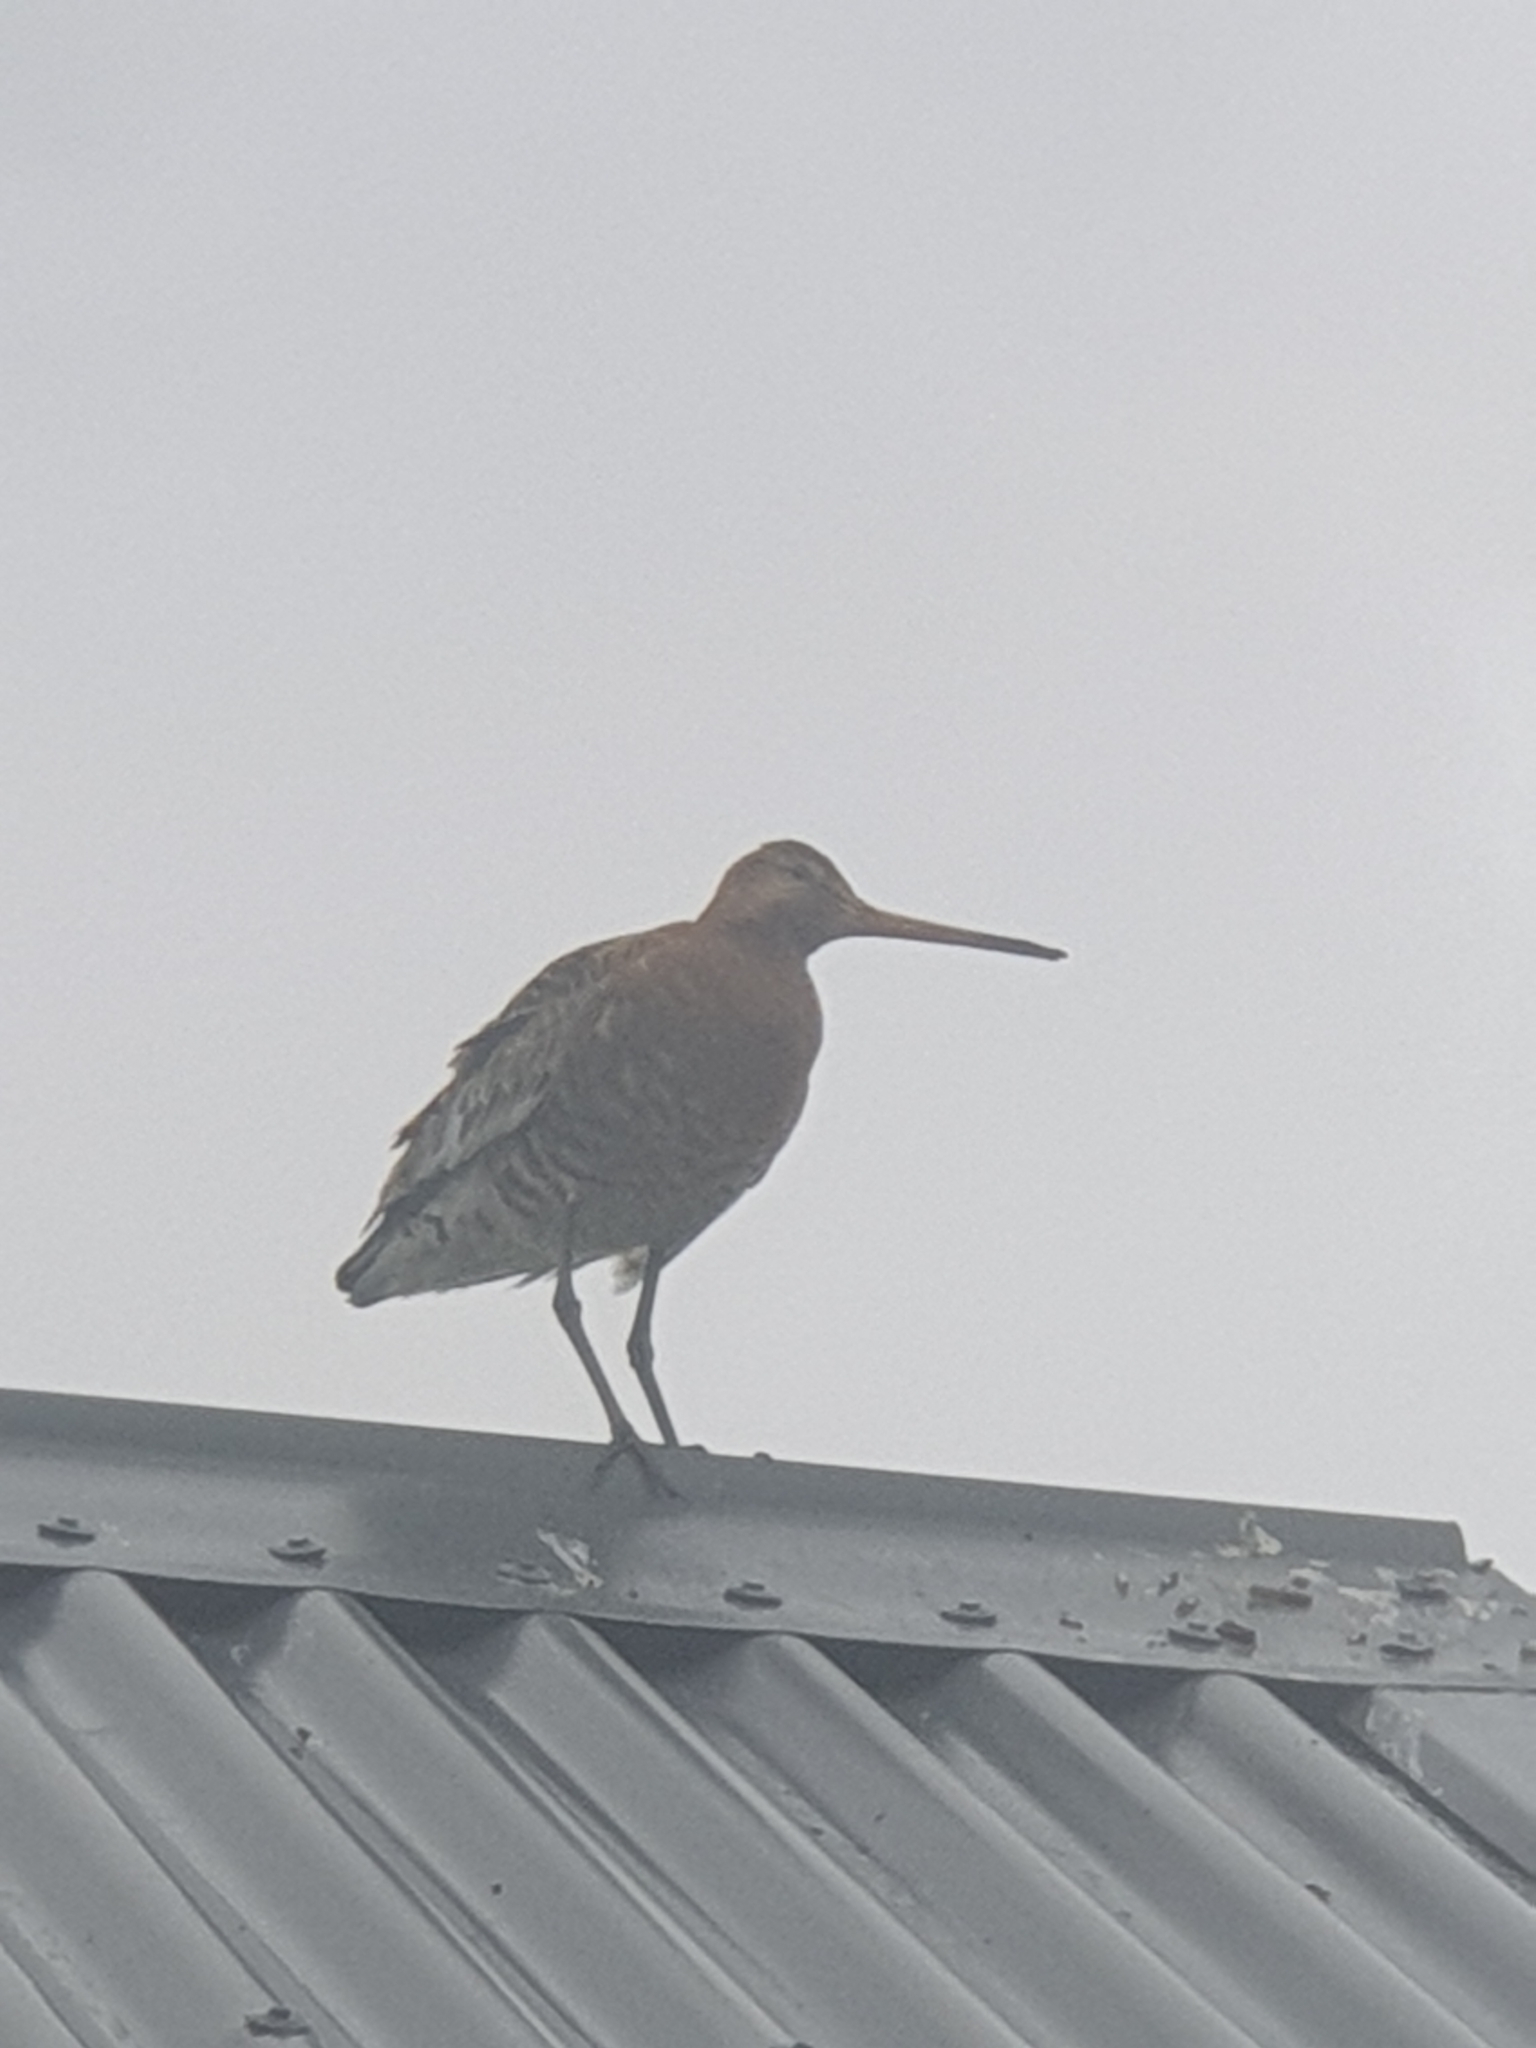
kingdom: Animalia
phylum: Chordata
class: Aves
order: Charadriiformes
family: Scolopacidae
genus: Limosa
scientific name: Limosa limosa
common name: Black-tailed godwit
